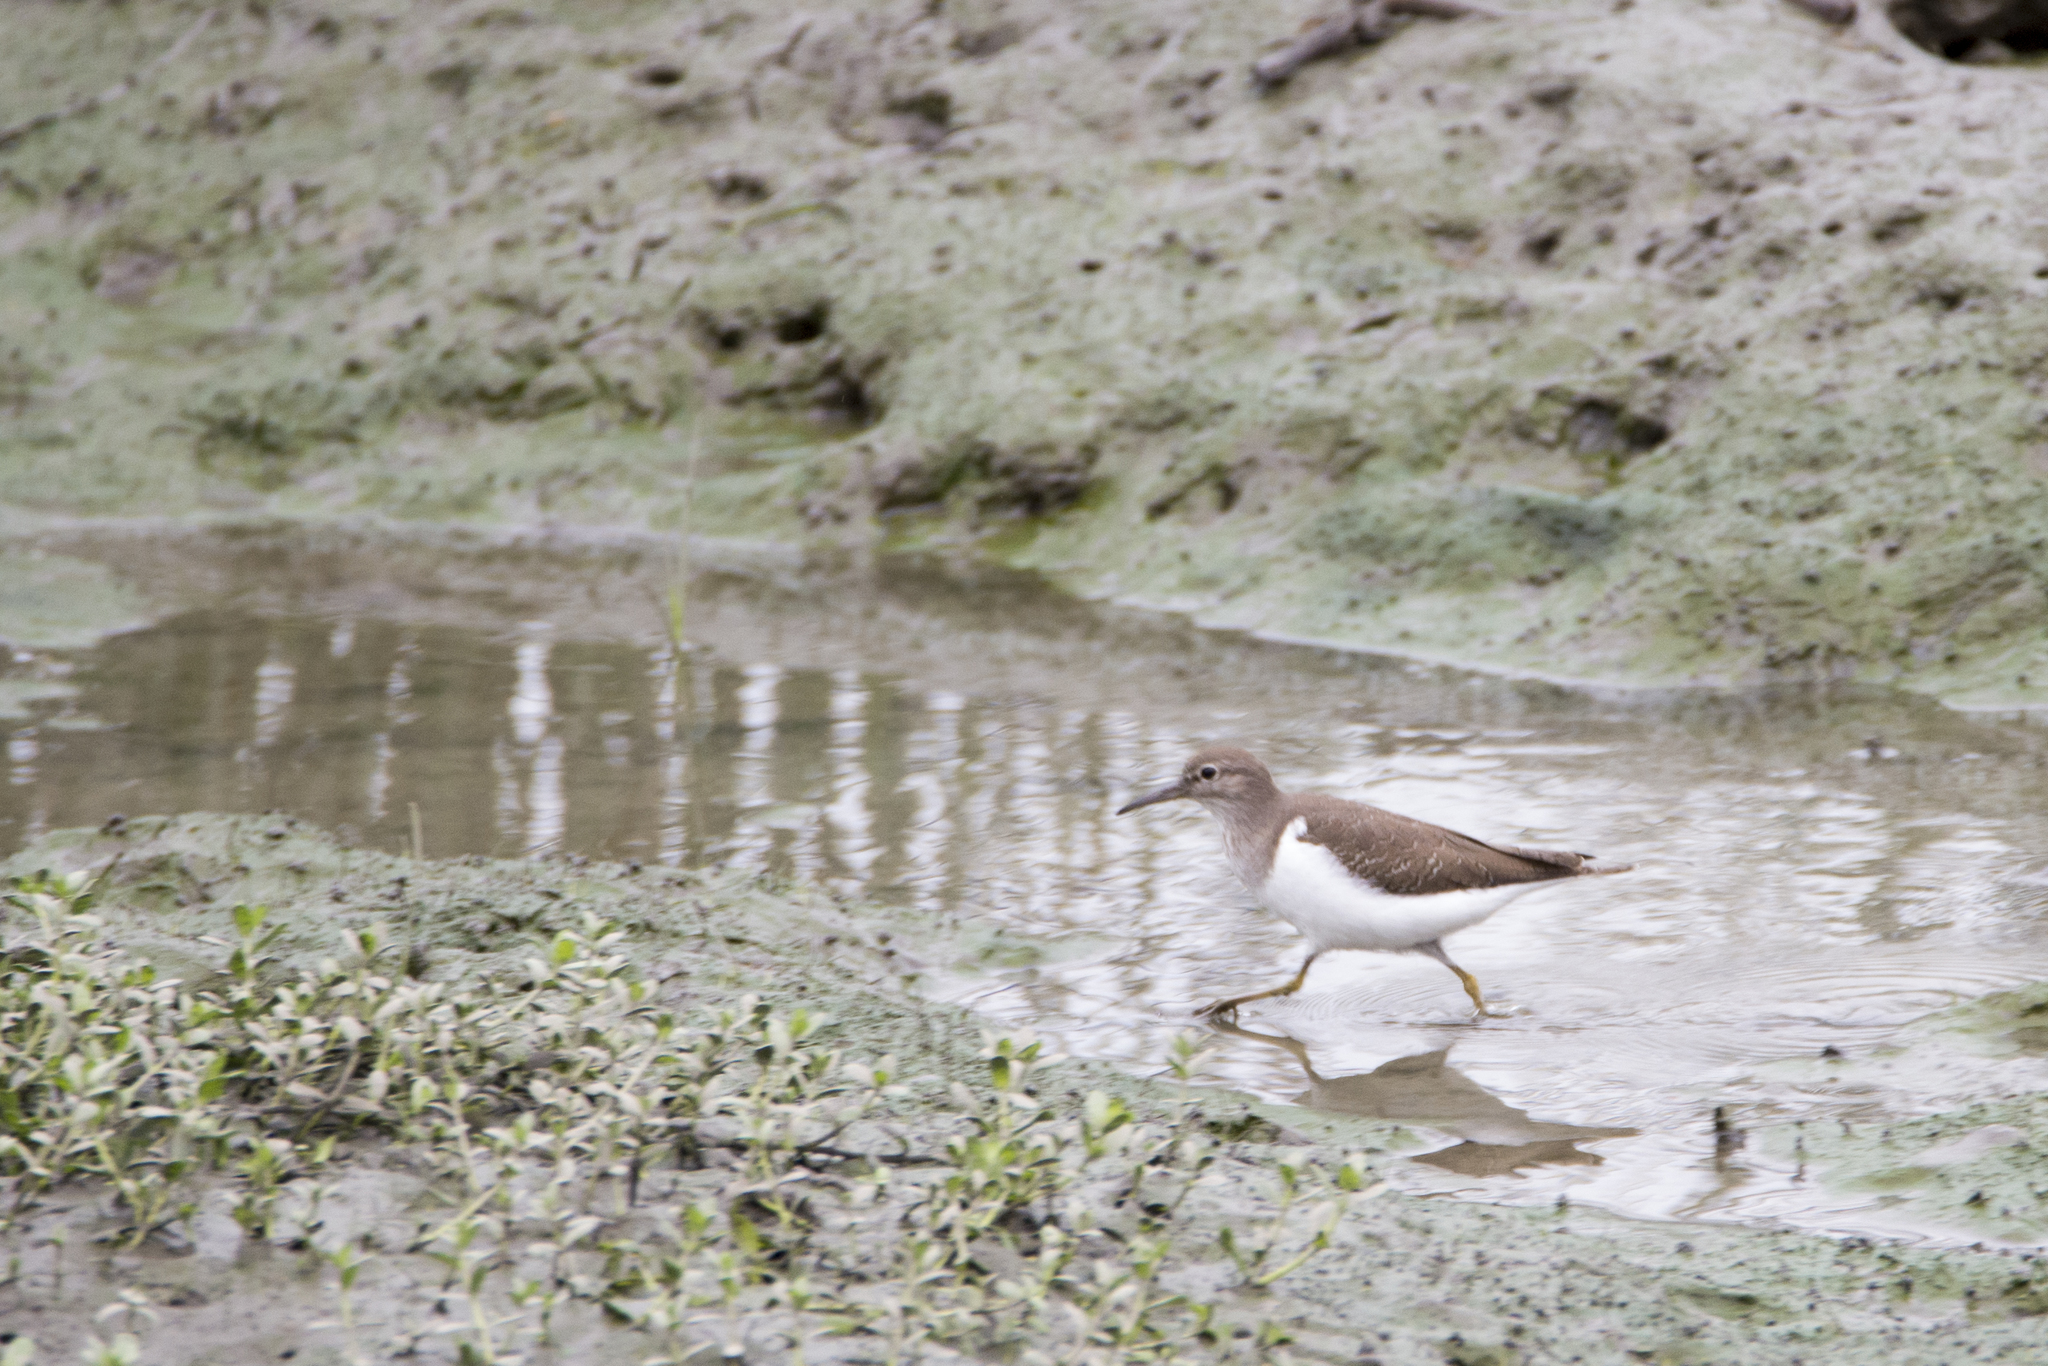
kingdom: Animalia
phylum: Chordata
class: Aves
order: Charadriiformes
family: Scolopacidae
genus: Actitis
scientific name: Actitis hypoleucos
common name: Common sandpiper
